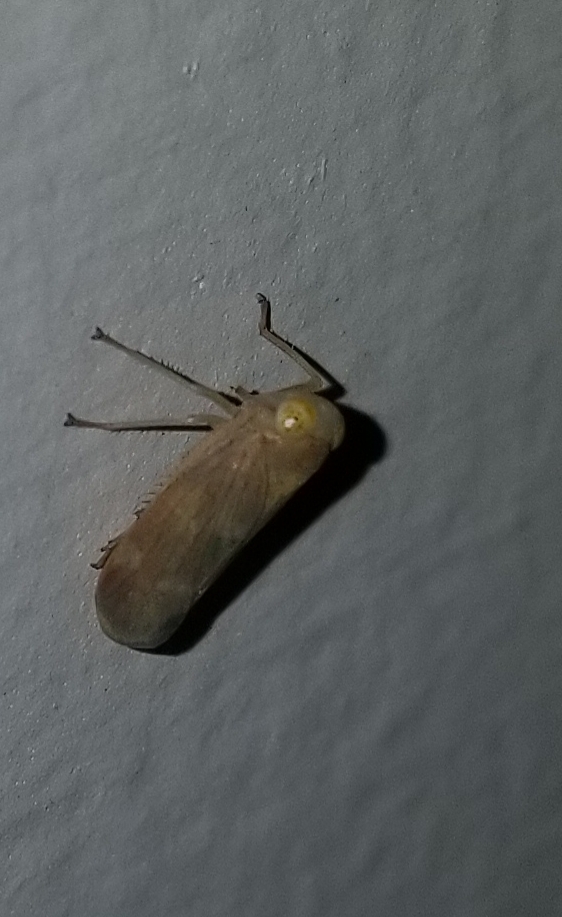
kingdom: Animalia
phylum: Arthropoda
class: Insecta
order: Hemiptera
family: Cicadellidae
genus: Jikradia
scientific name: Jikradia olitoria
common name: Coppery leafhopper
